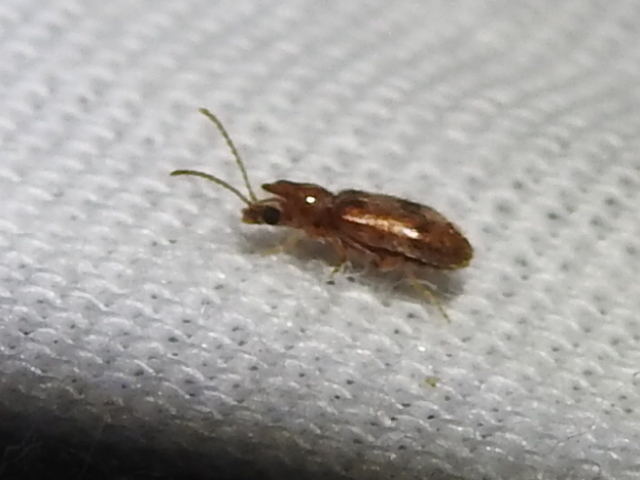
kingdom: Animalia
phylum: Arthropoda
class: Insecta
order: Coleoptera
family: Anthicidae
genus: Notoxus
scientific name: Notoxus monodon
